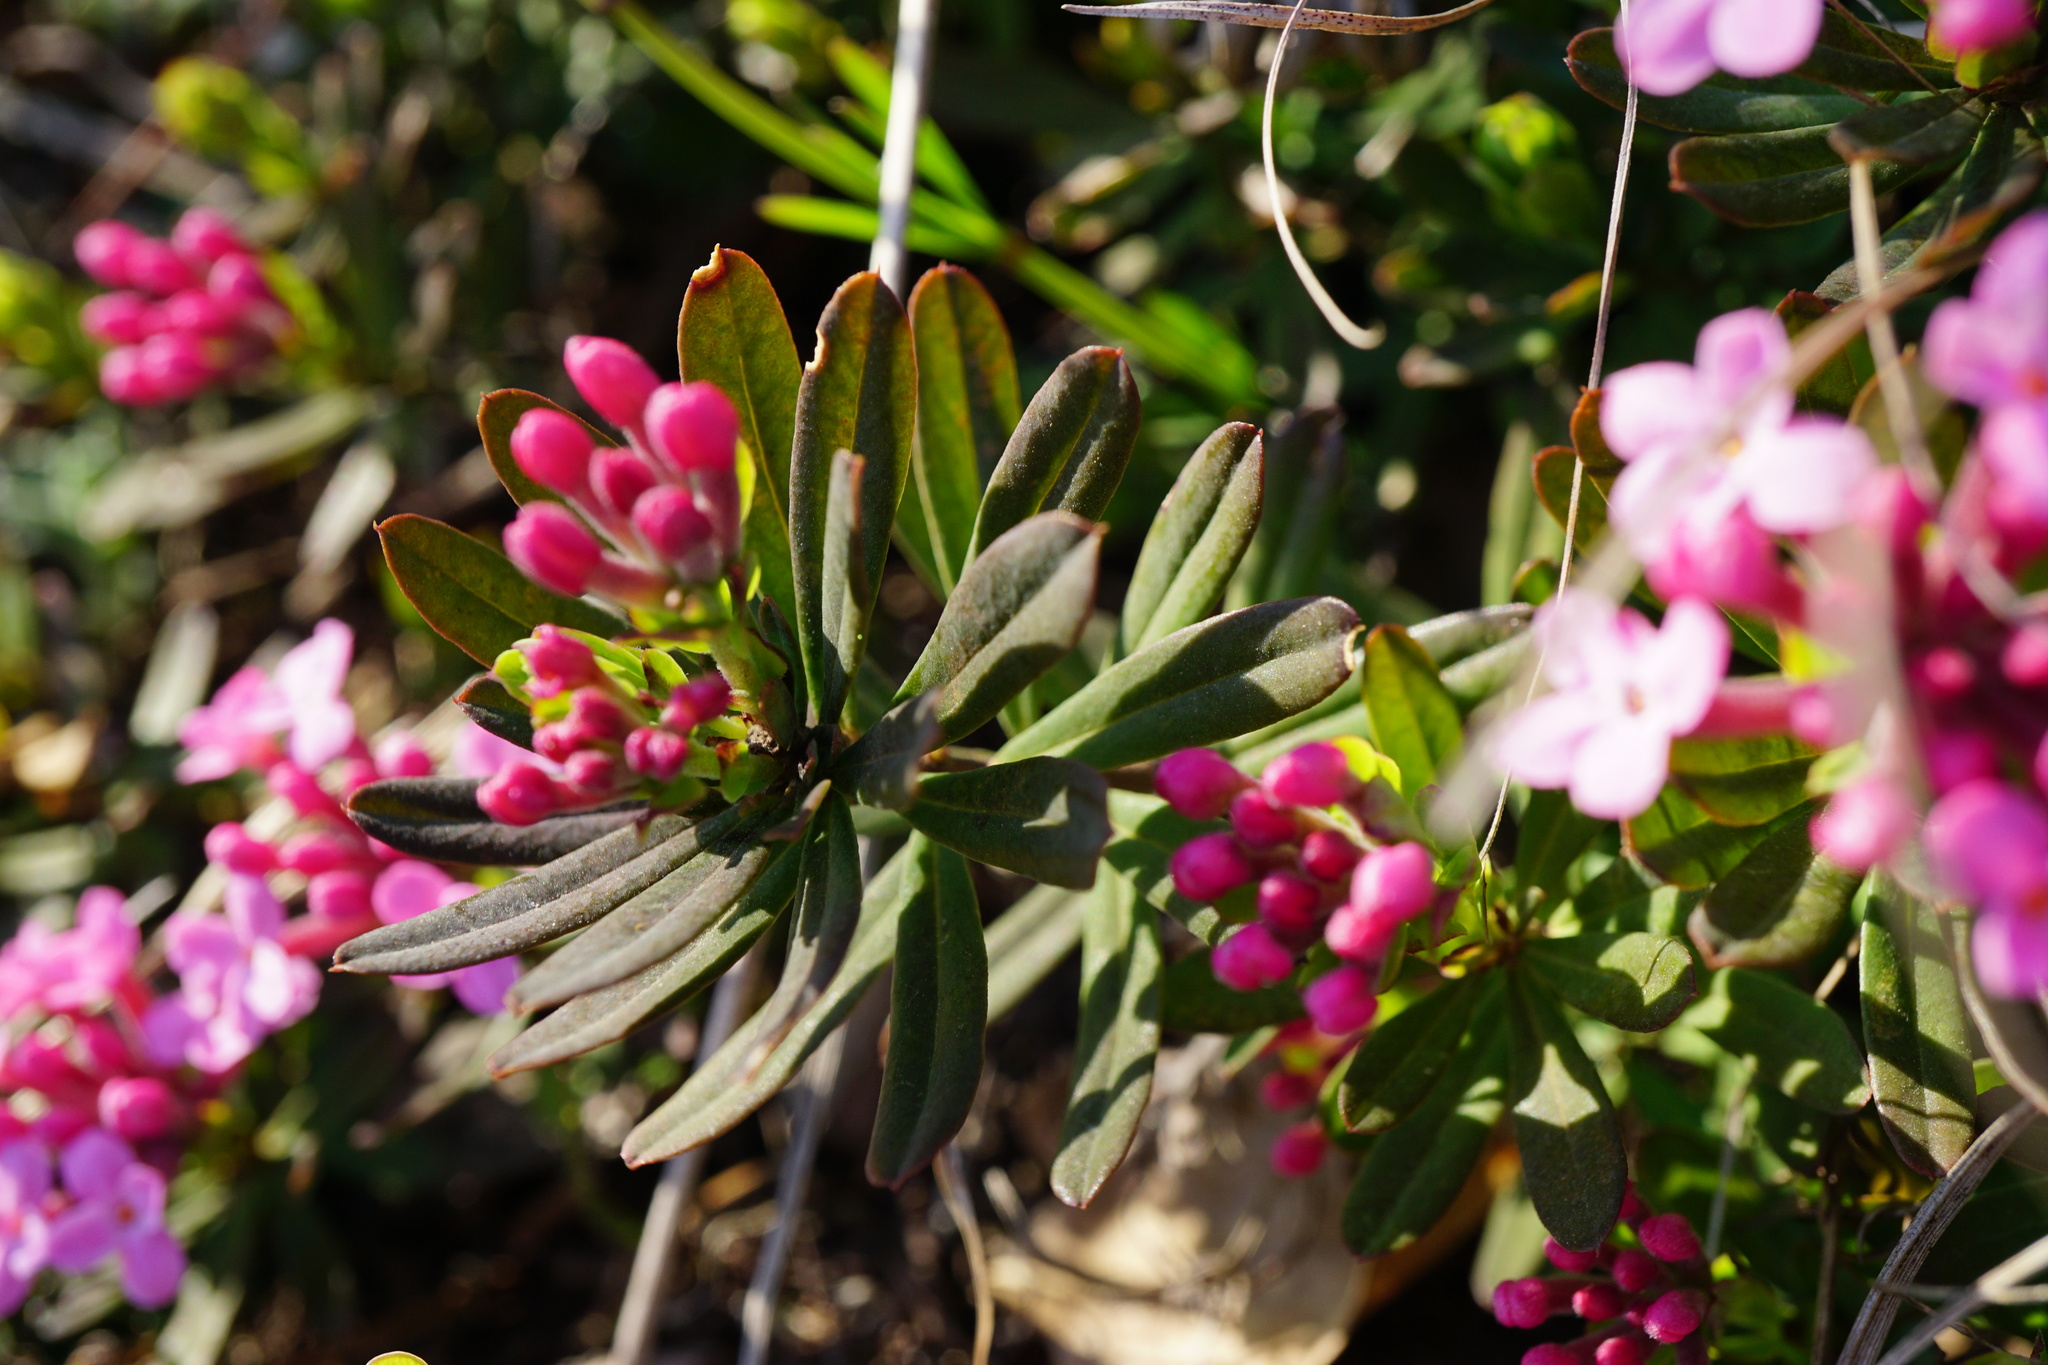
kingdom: Plantae
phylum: Tracheophyta
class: Magnoliopsida
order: Malvales
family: Thymelaeaceae
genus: Daphne
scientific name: Daphne cneorum
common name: Garland-flower
